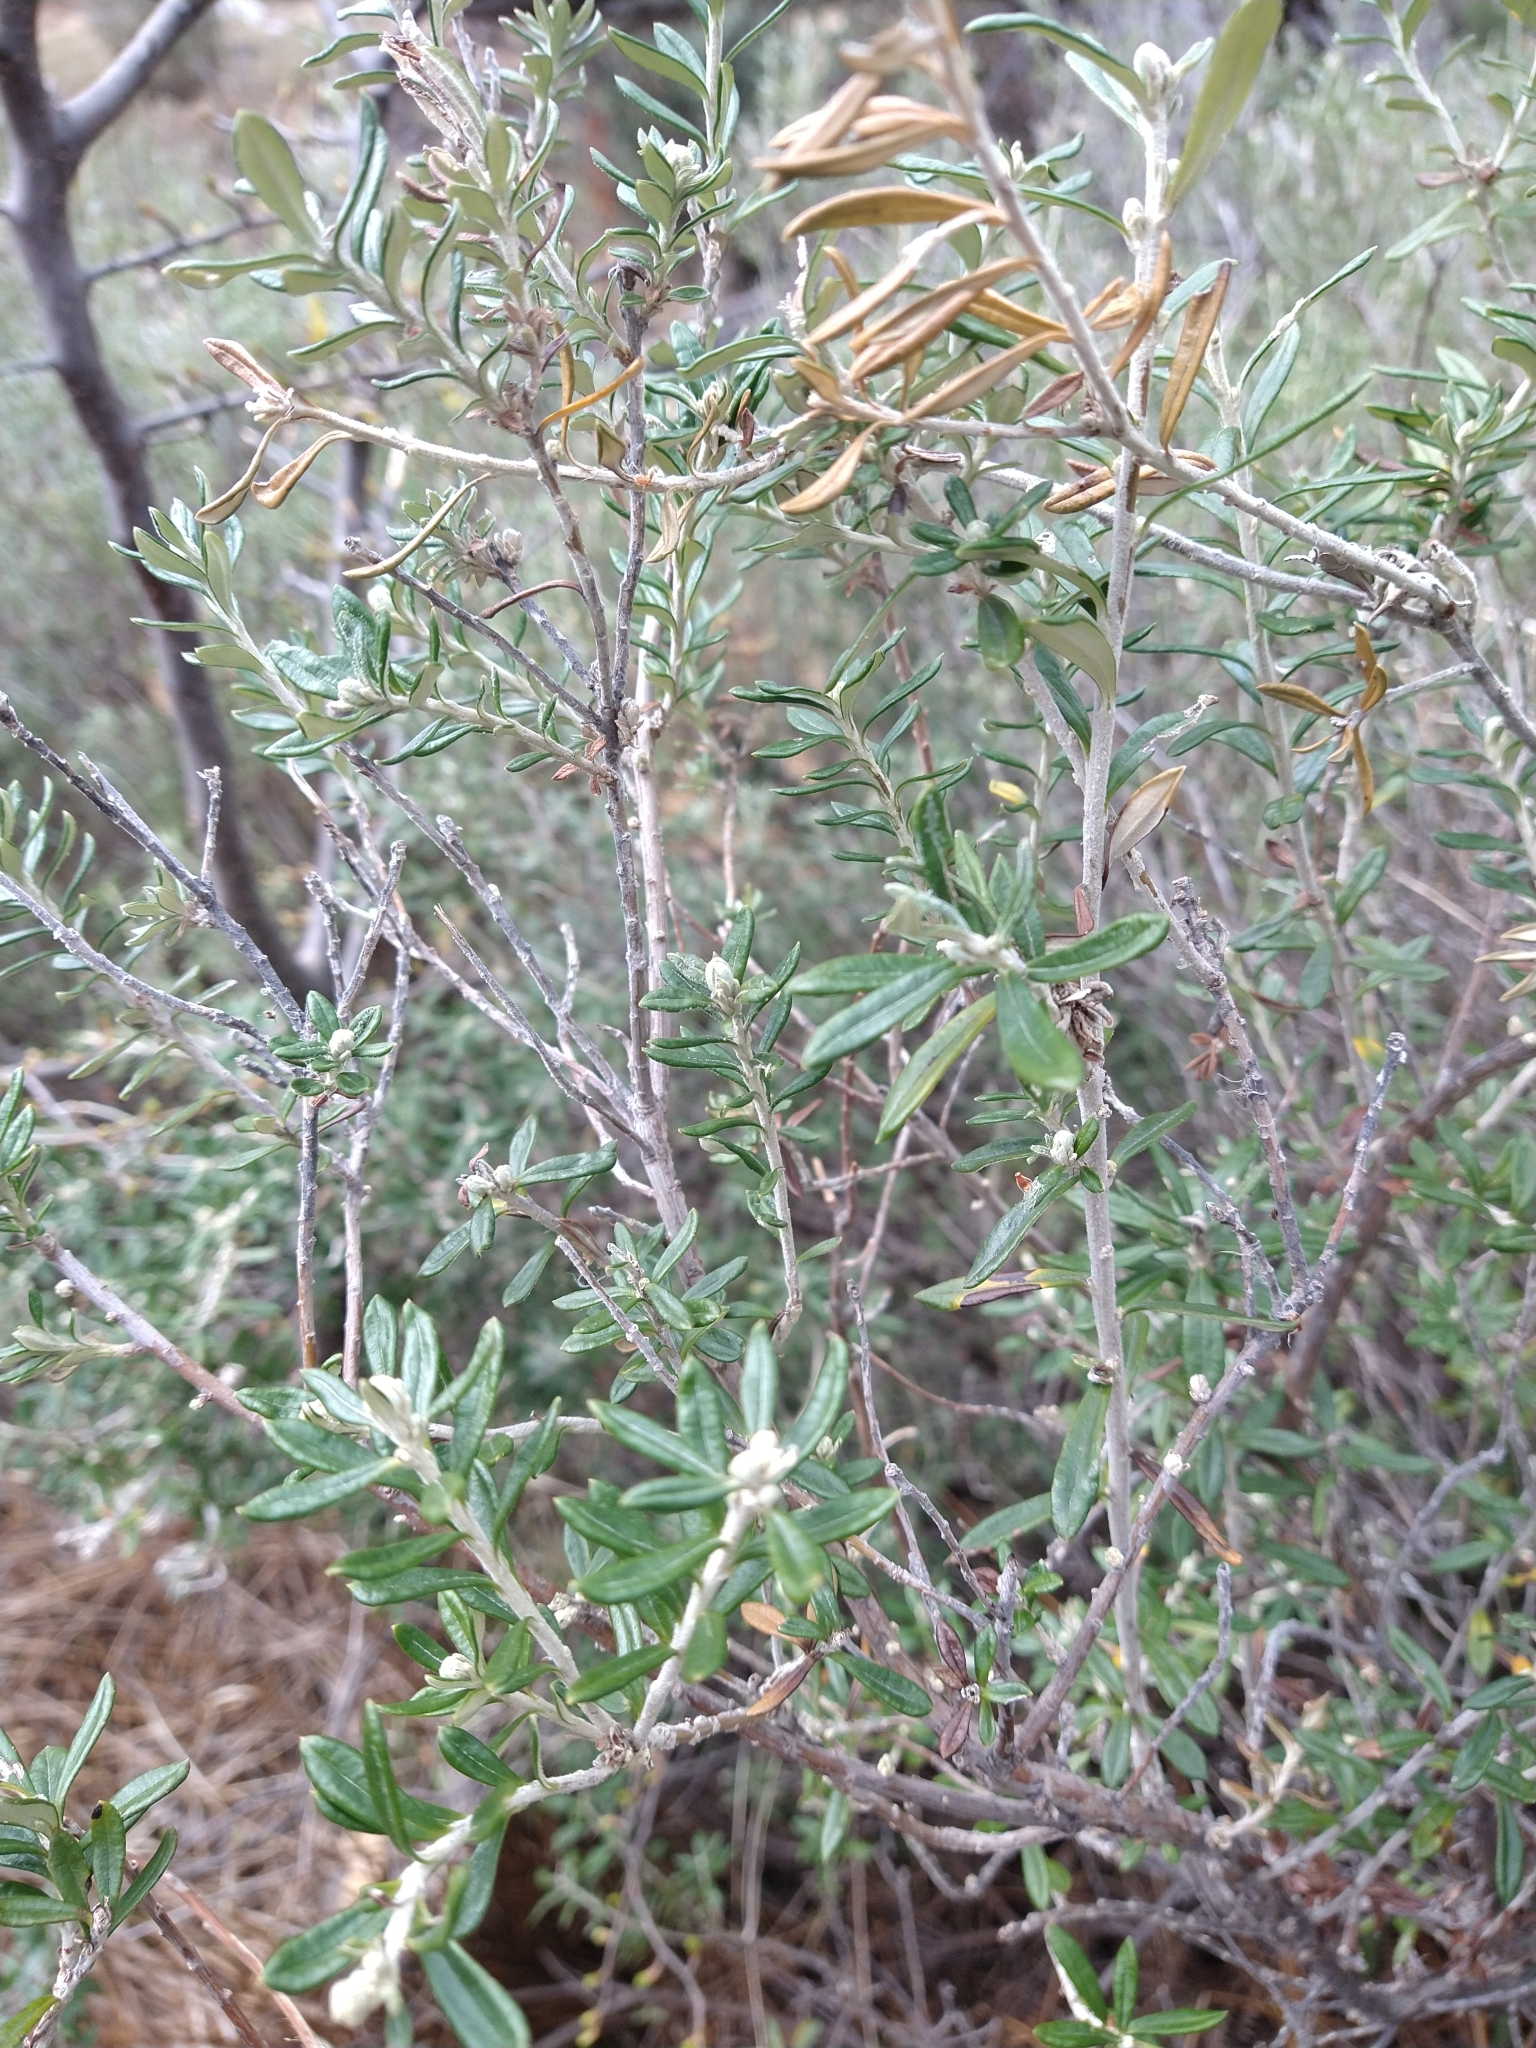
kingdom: Plantae
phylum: Tracheophyta
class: Magnoliopsida
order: Asterales
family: Asteraceae
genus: Chiliotrichum
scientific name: Chiliotrichum diffusum
